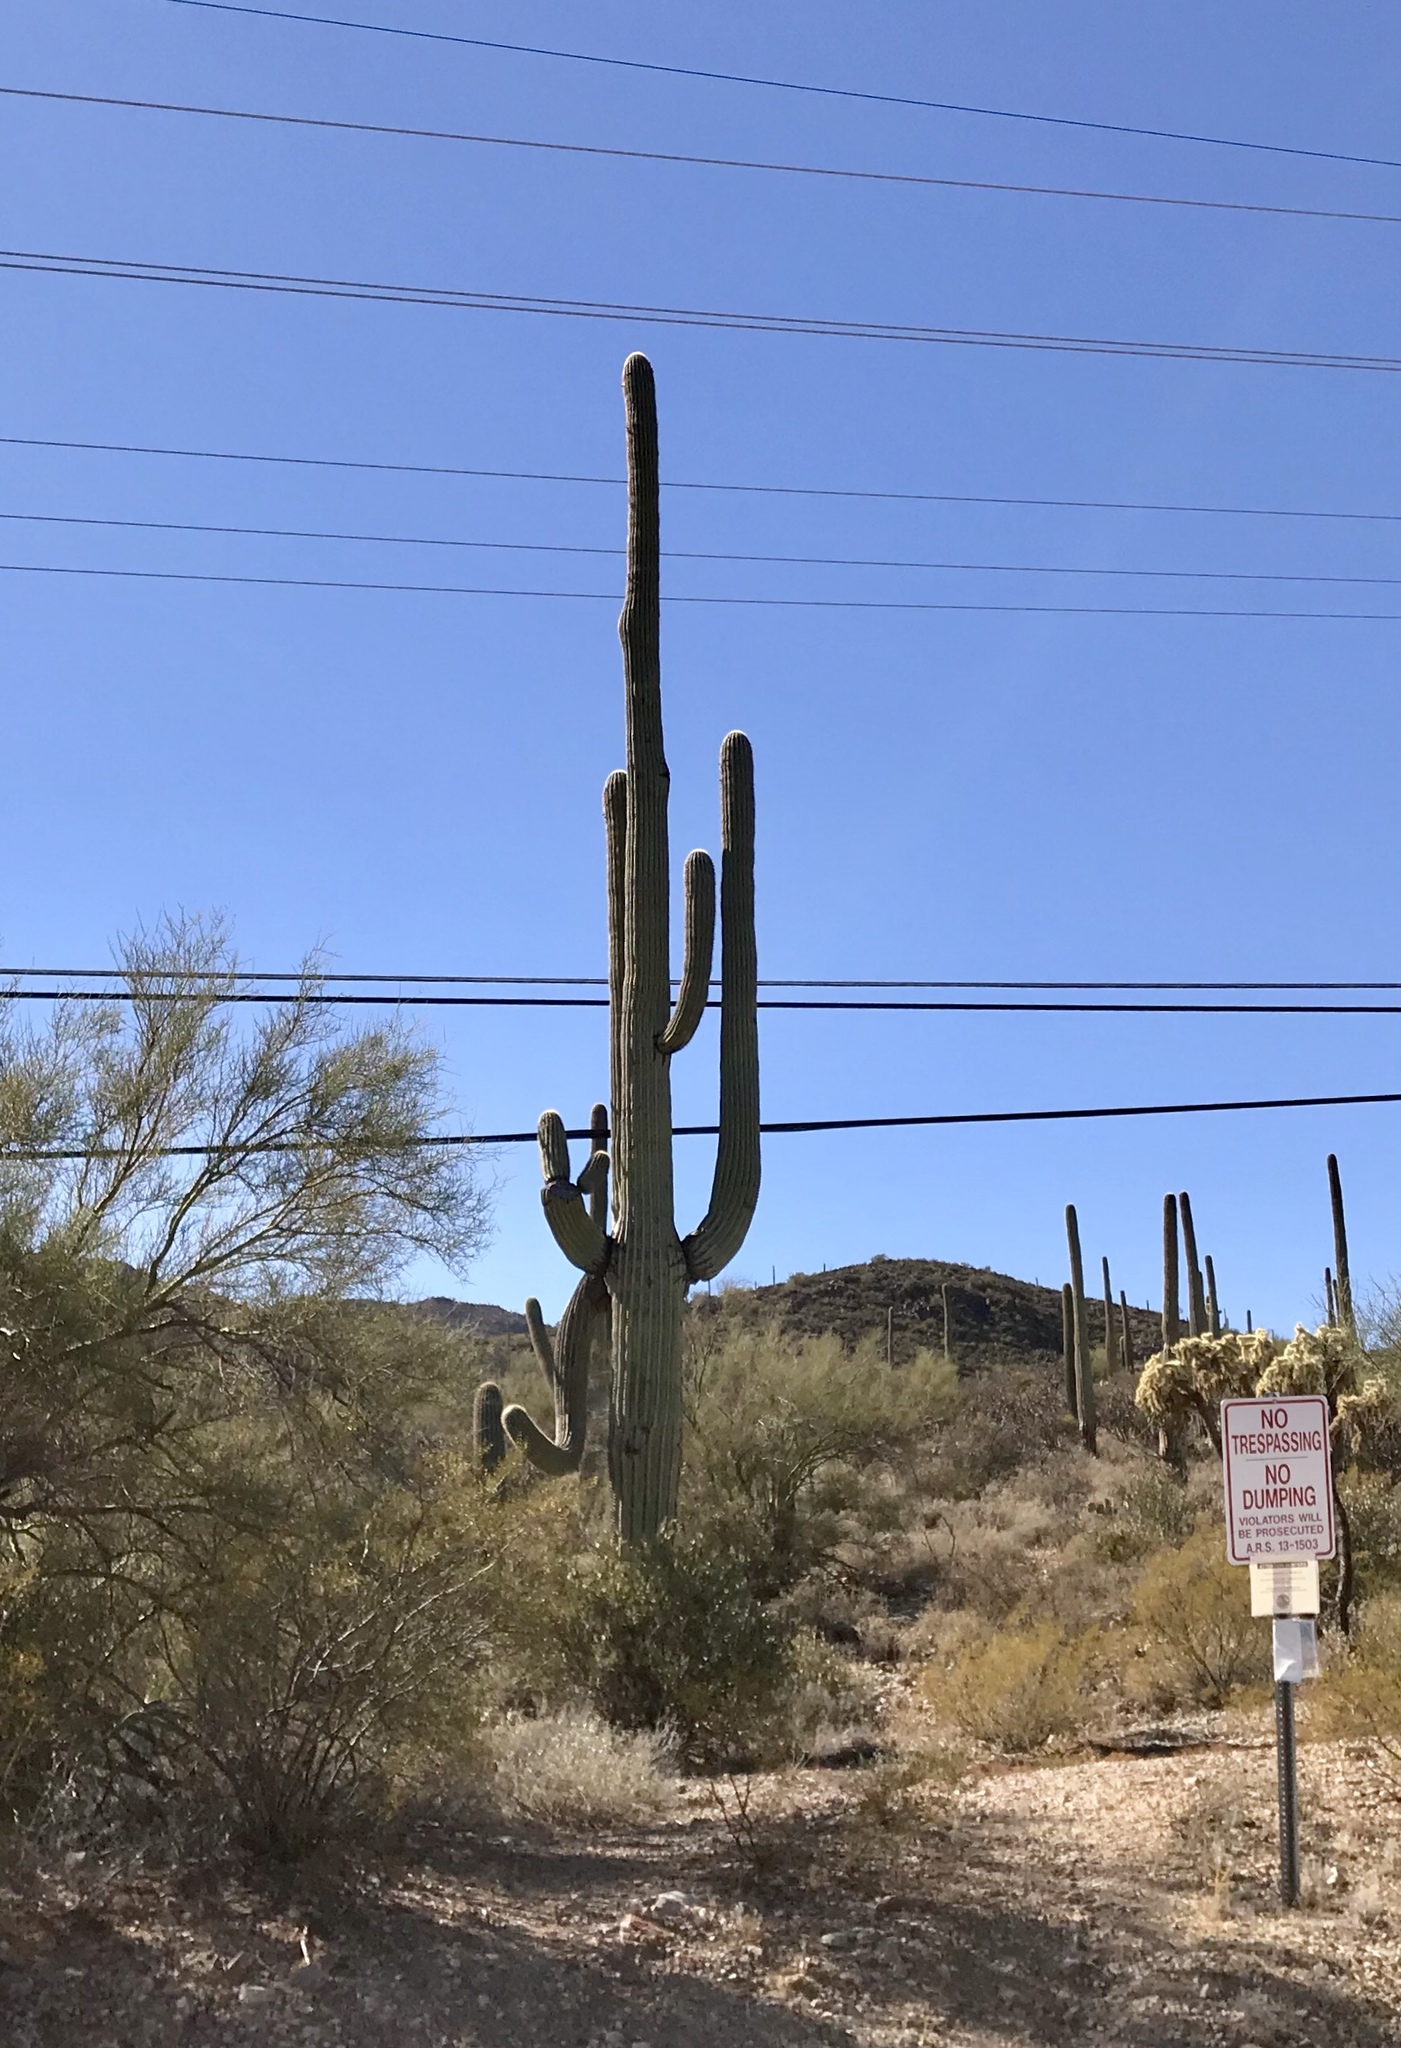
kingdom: Plantae
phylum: Tracheophyta
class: Magnoliopsida
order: Caryophyllales
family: Cactaceae
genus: Carnegiea
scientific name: Carnegiea gigantea
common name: Saguaro
